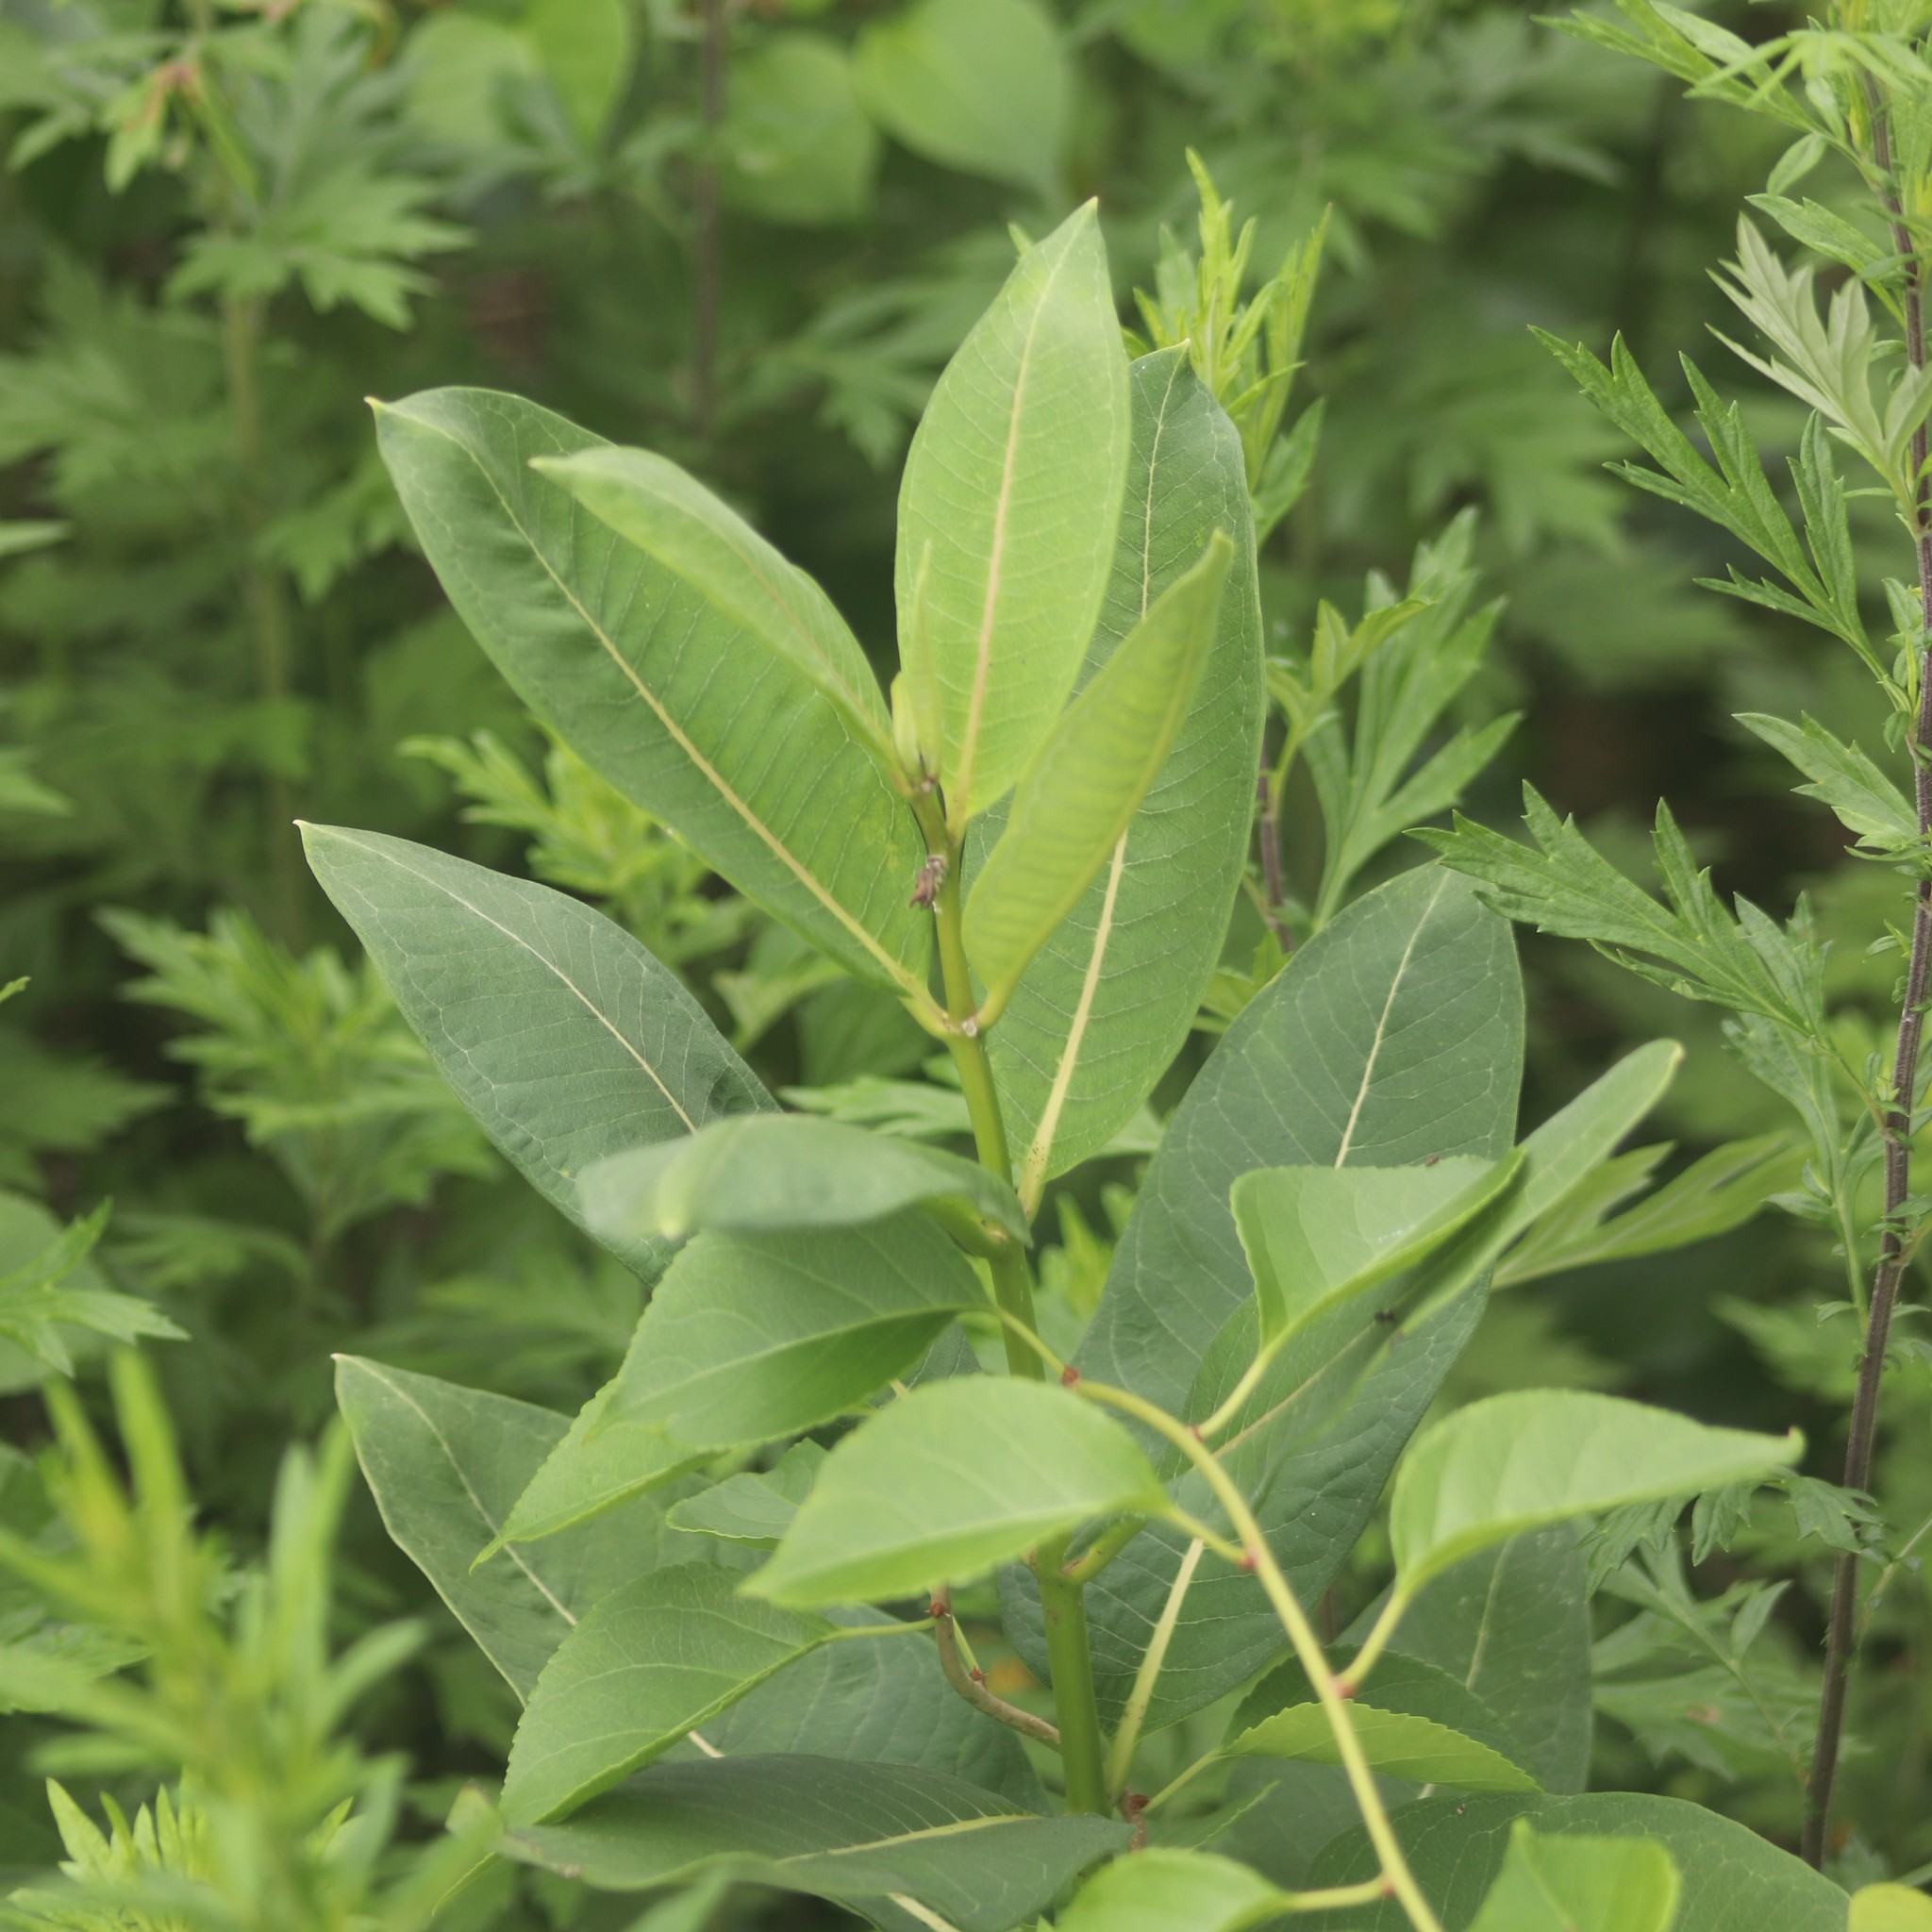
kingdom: Plantae
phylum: Tracheophyta
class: Magnoliopsida
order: Gentianales
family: Apocynaceae
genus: Asclepias
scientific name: Asclepias syriaca
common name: Common milkweed
